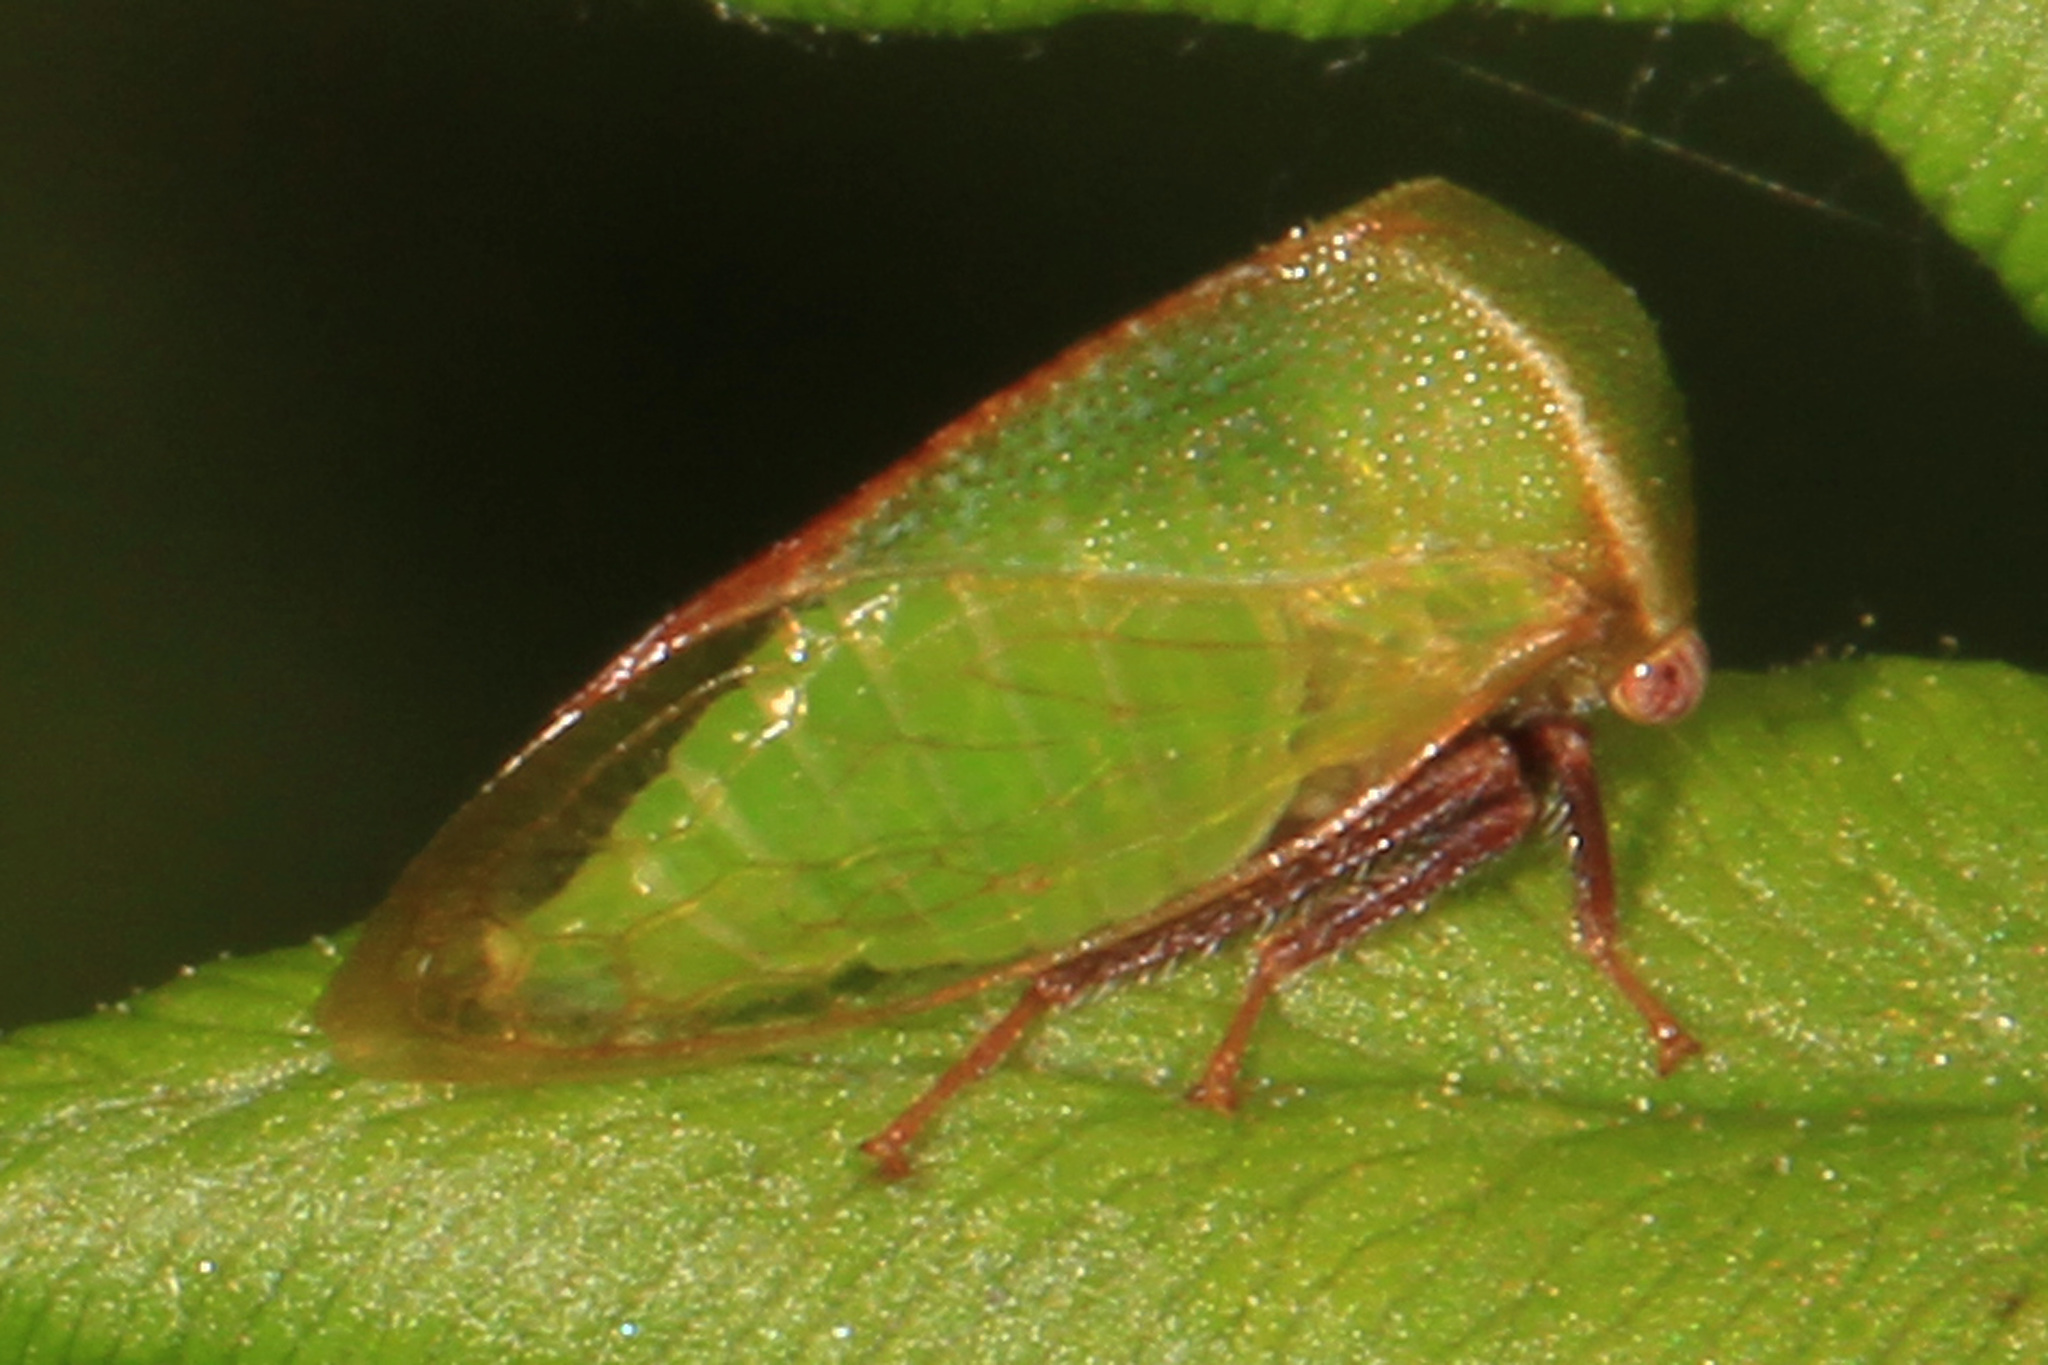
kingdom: Animalia
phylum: Arthropoda
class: Insecta
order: Hemiptera
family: Membracidae
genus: Stictocephala
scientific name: Stictocephala lutea
